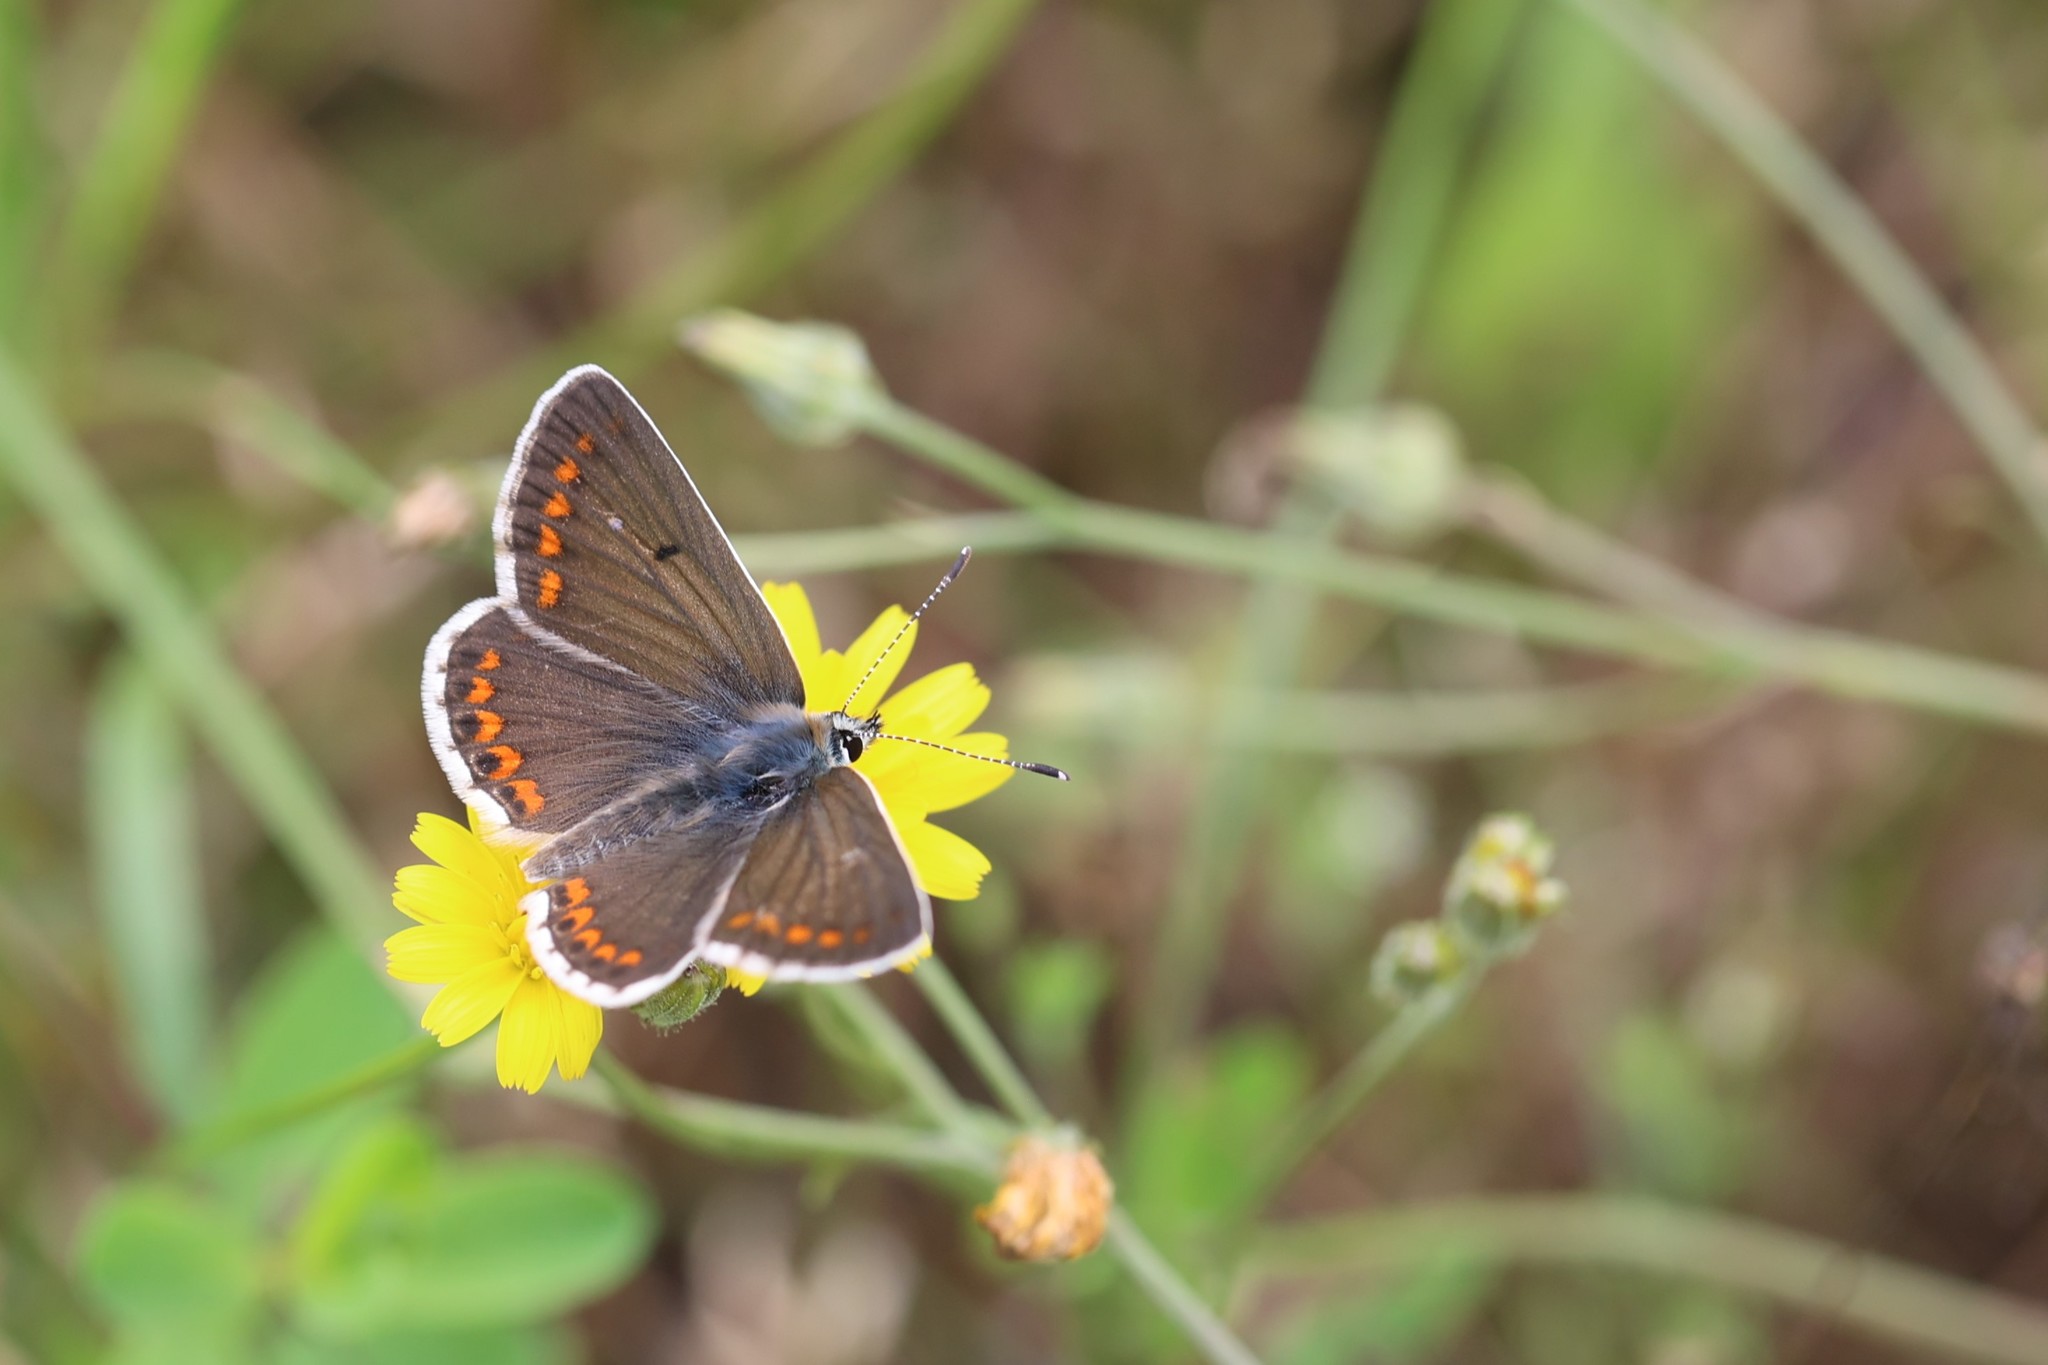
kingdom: Animalia
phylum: Arthropoda
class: Insecta
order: Lepidoptera
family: Lycaenidae
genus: Aricia
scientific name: Aricia agestis
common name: Brown argus
